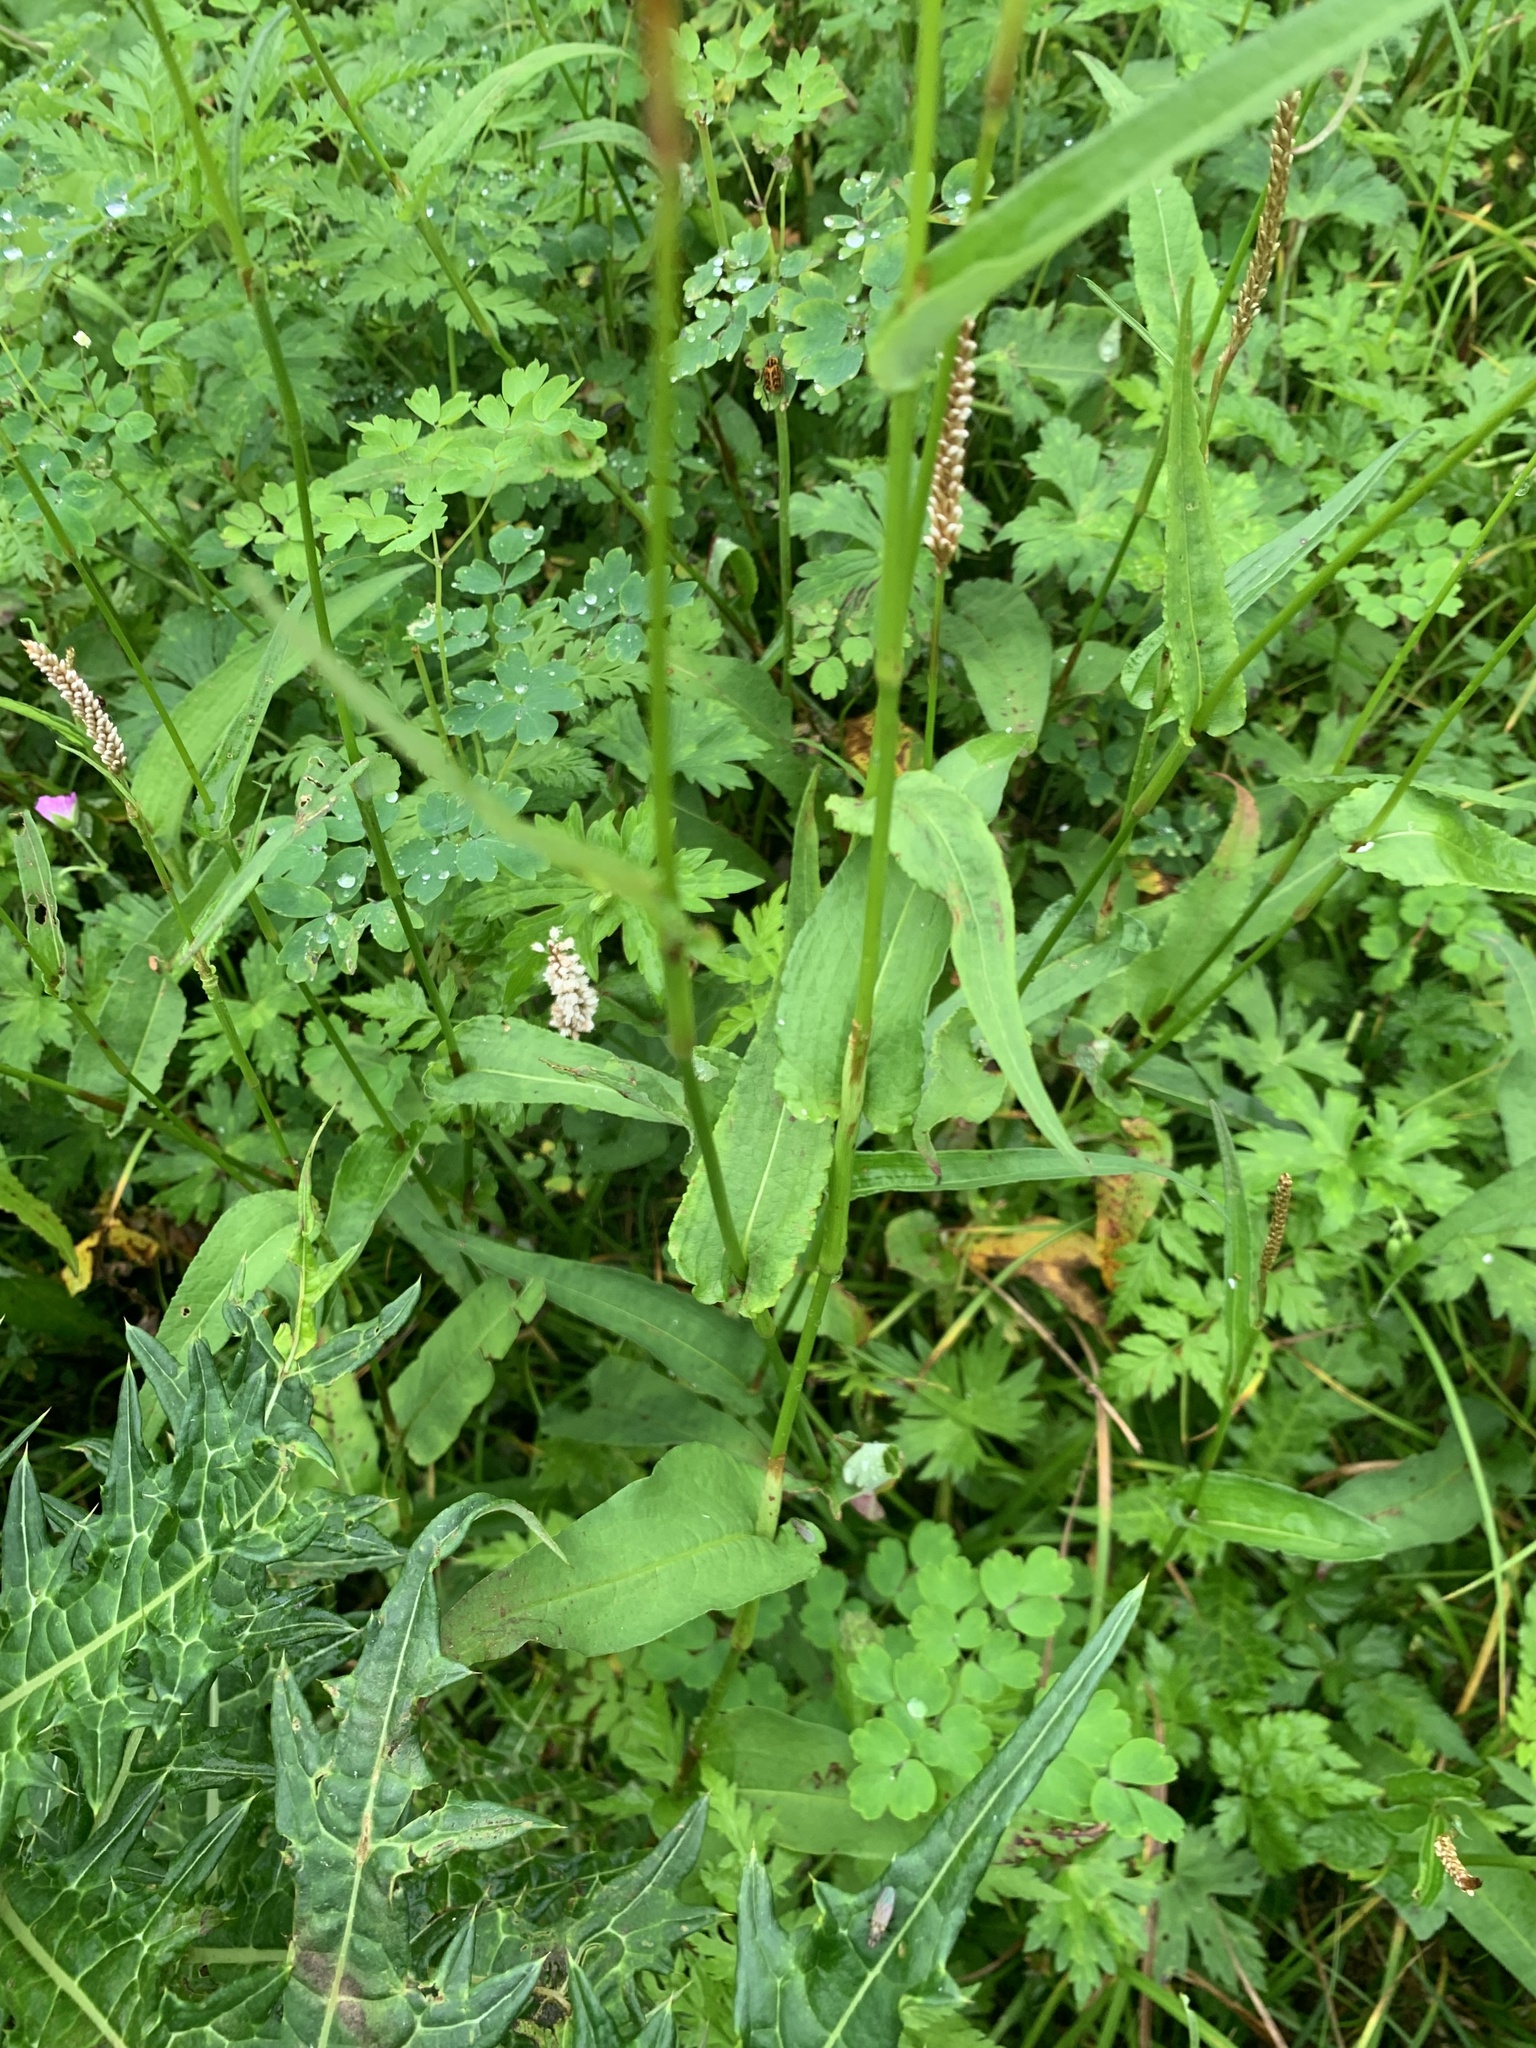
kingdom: Plantae
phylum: Tracheophyta
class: Magnoliopsida
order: Caryophyllales
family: Polygonaceae
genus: Bistorta
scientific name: Bistorta officinalis
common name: Common bistort
